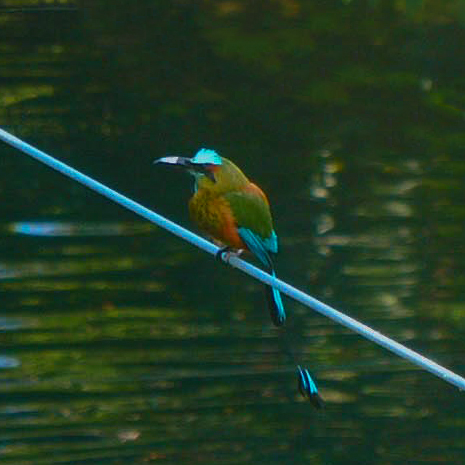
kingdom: Animalia
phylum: Chordata
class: Aves
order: Coraciiformes
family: Momotidae
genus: Eumomota
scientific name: Eumomota superciliosa
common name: Turquoise-browed motmot
